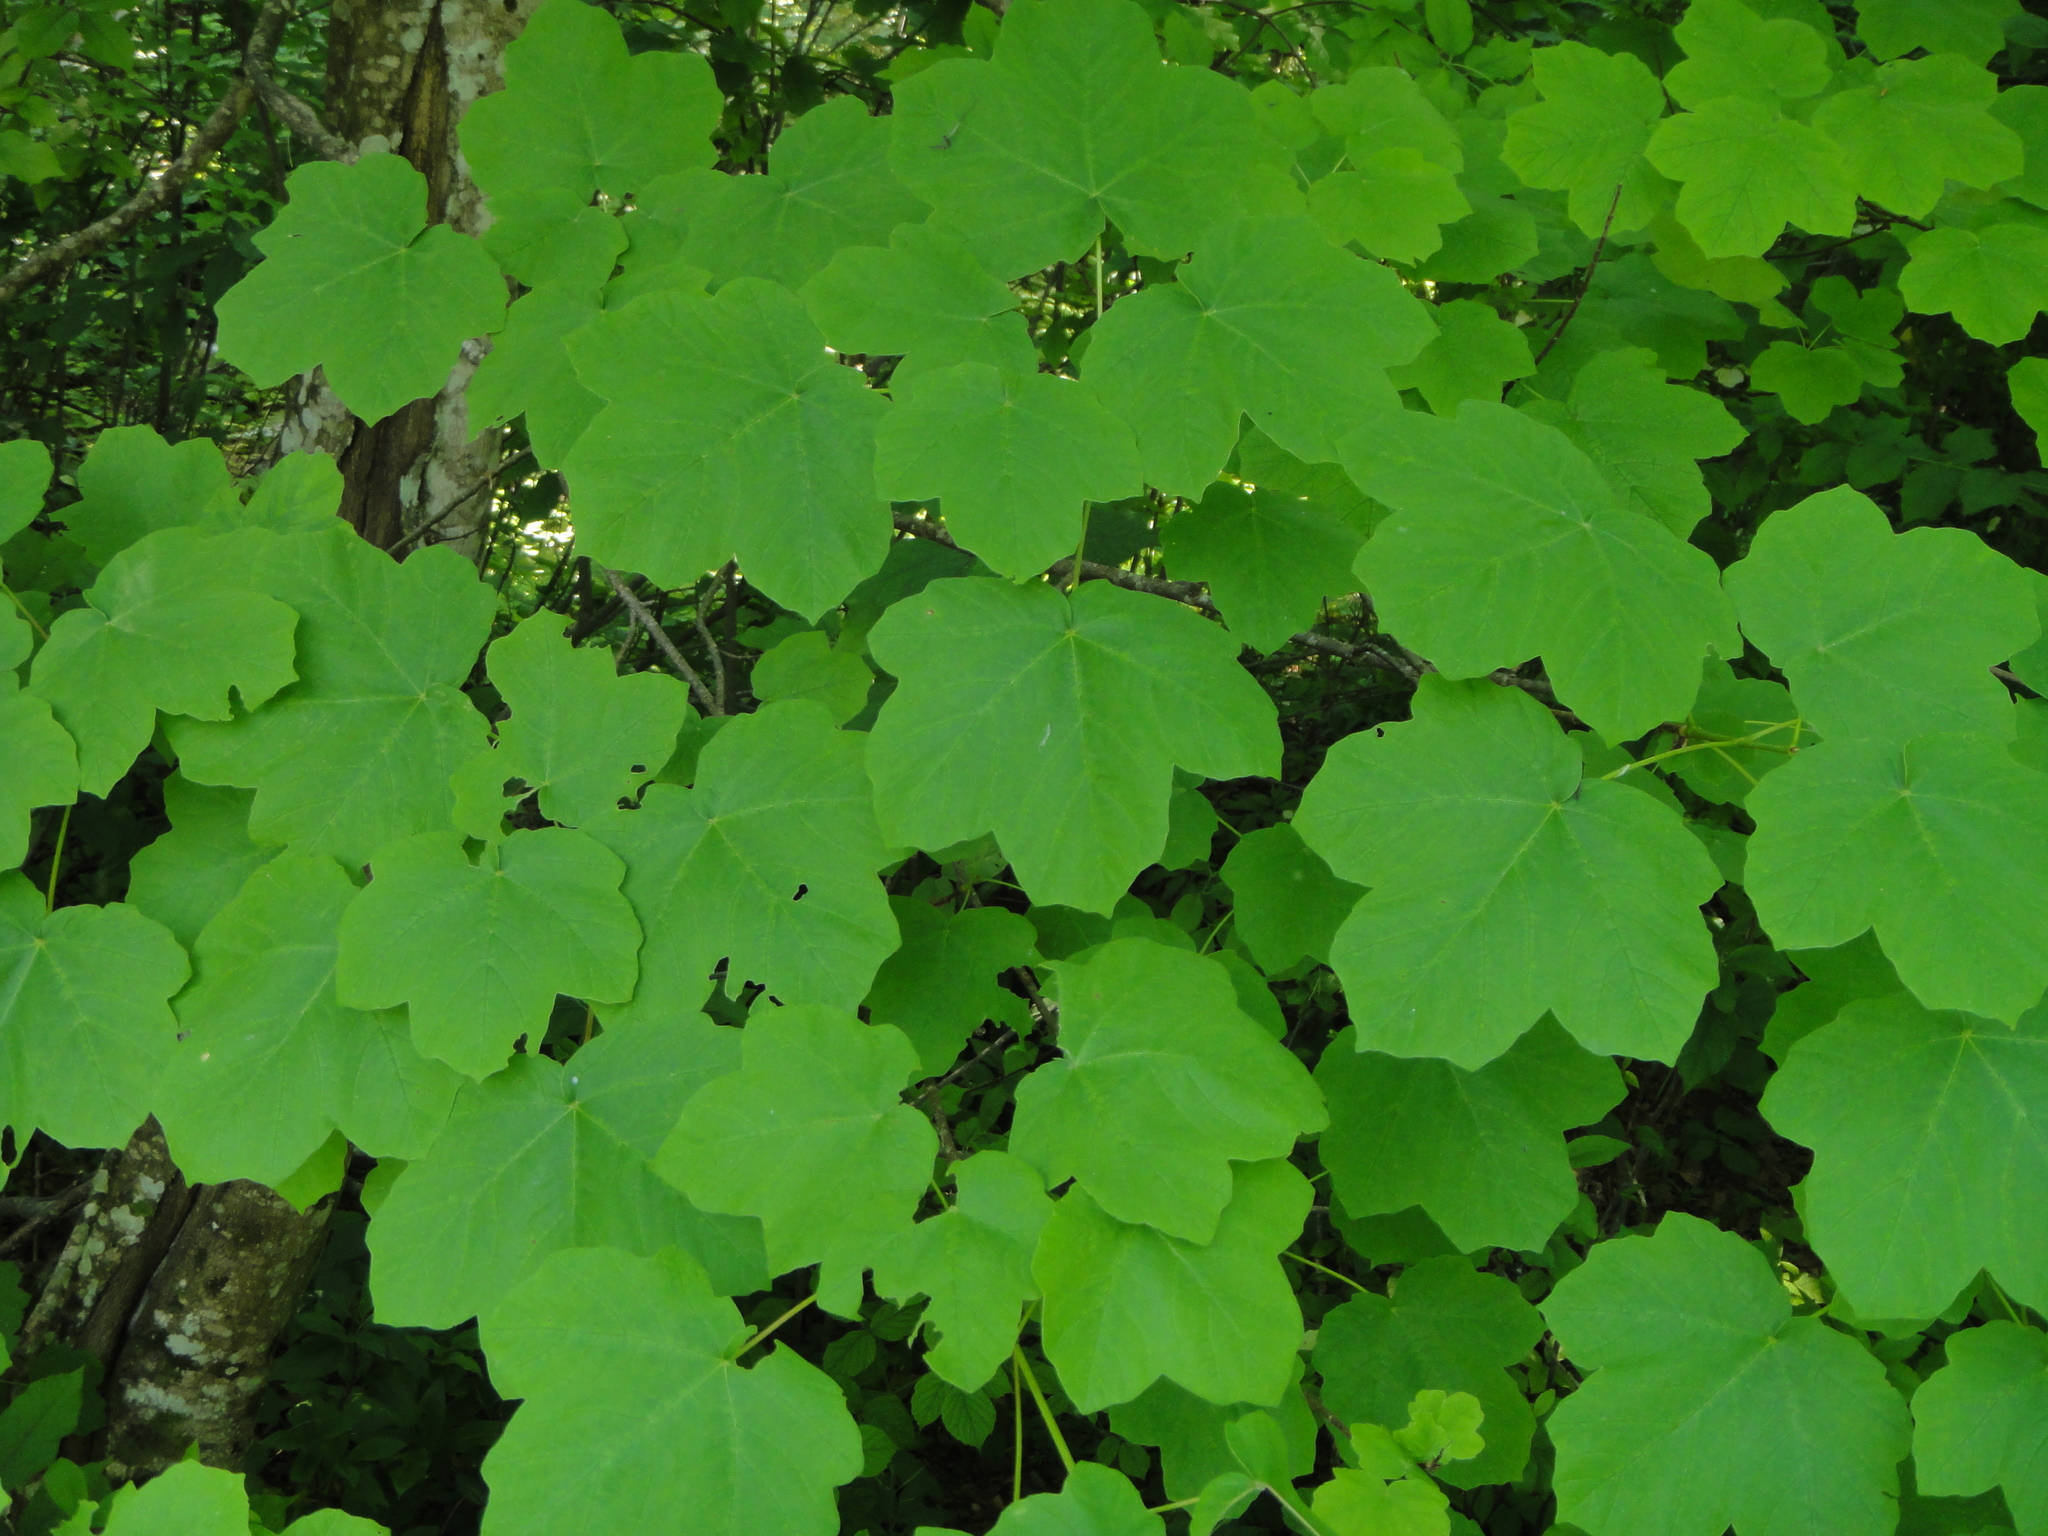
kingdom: Plantae
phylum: Tracheophyta
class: Magnoliopsida
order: Sapindales
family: Sapindaceae
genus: Acer
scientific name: Acer obtusatum
